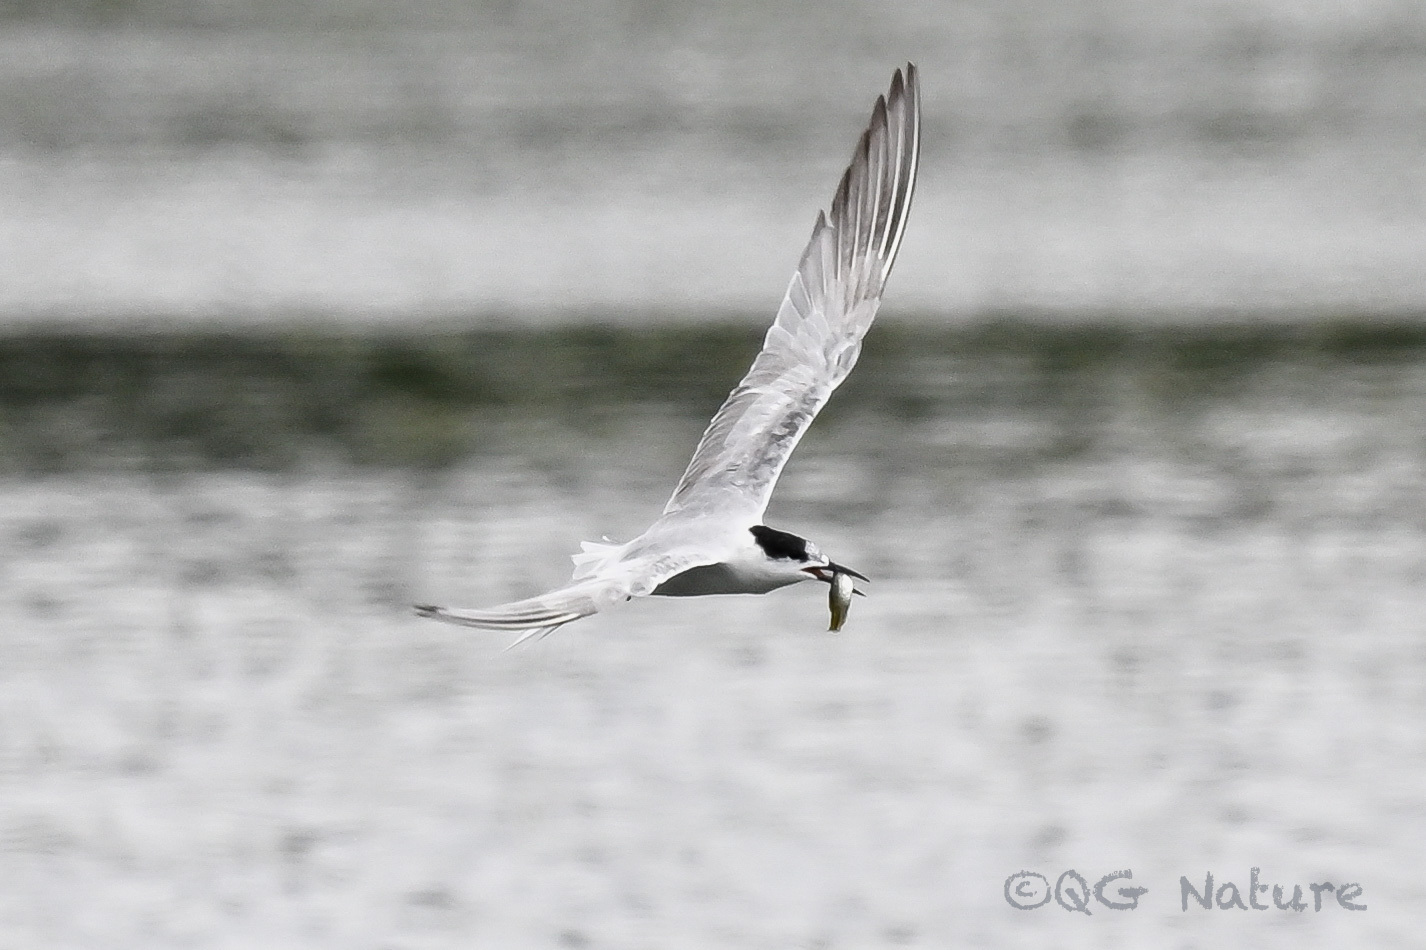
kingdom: Animalia
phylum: Chordata
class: Aves
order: Charadriiformes
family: Laridae
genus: Sterna
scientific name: Sterna hirundo
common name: Common tern
